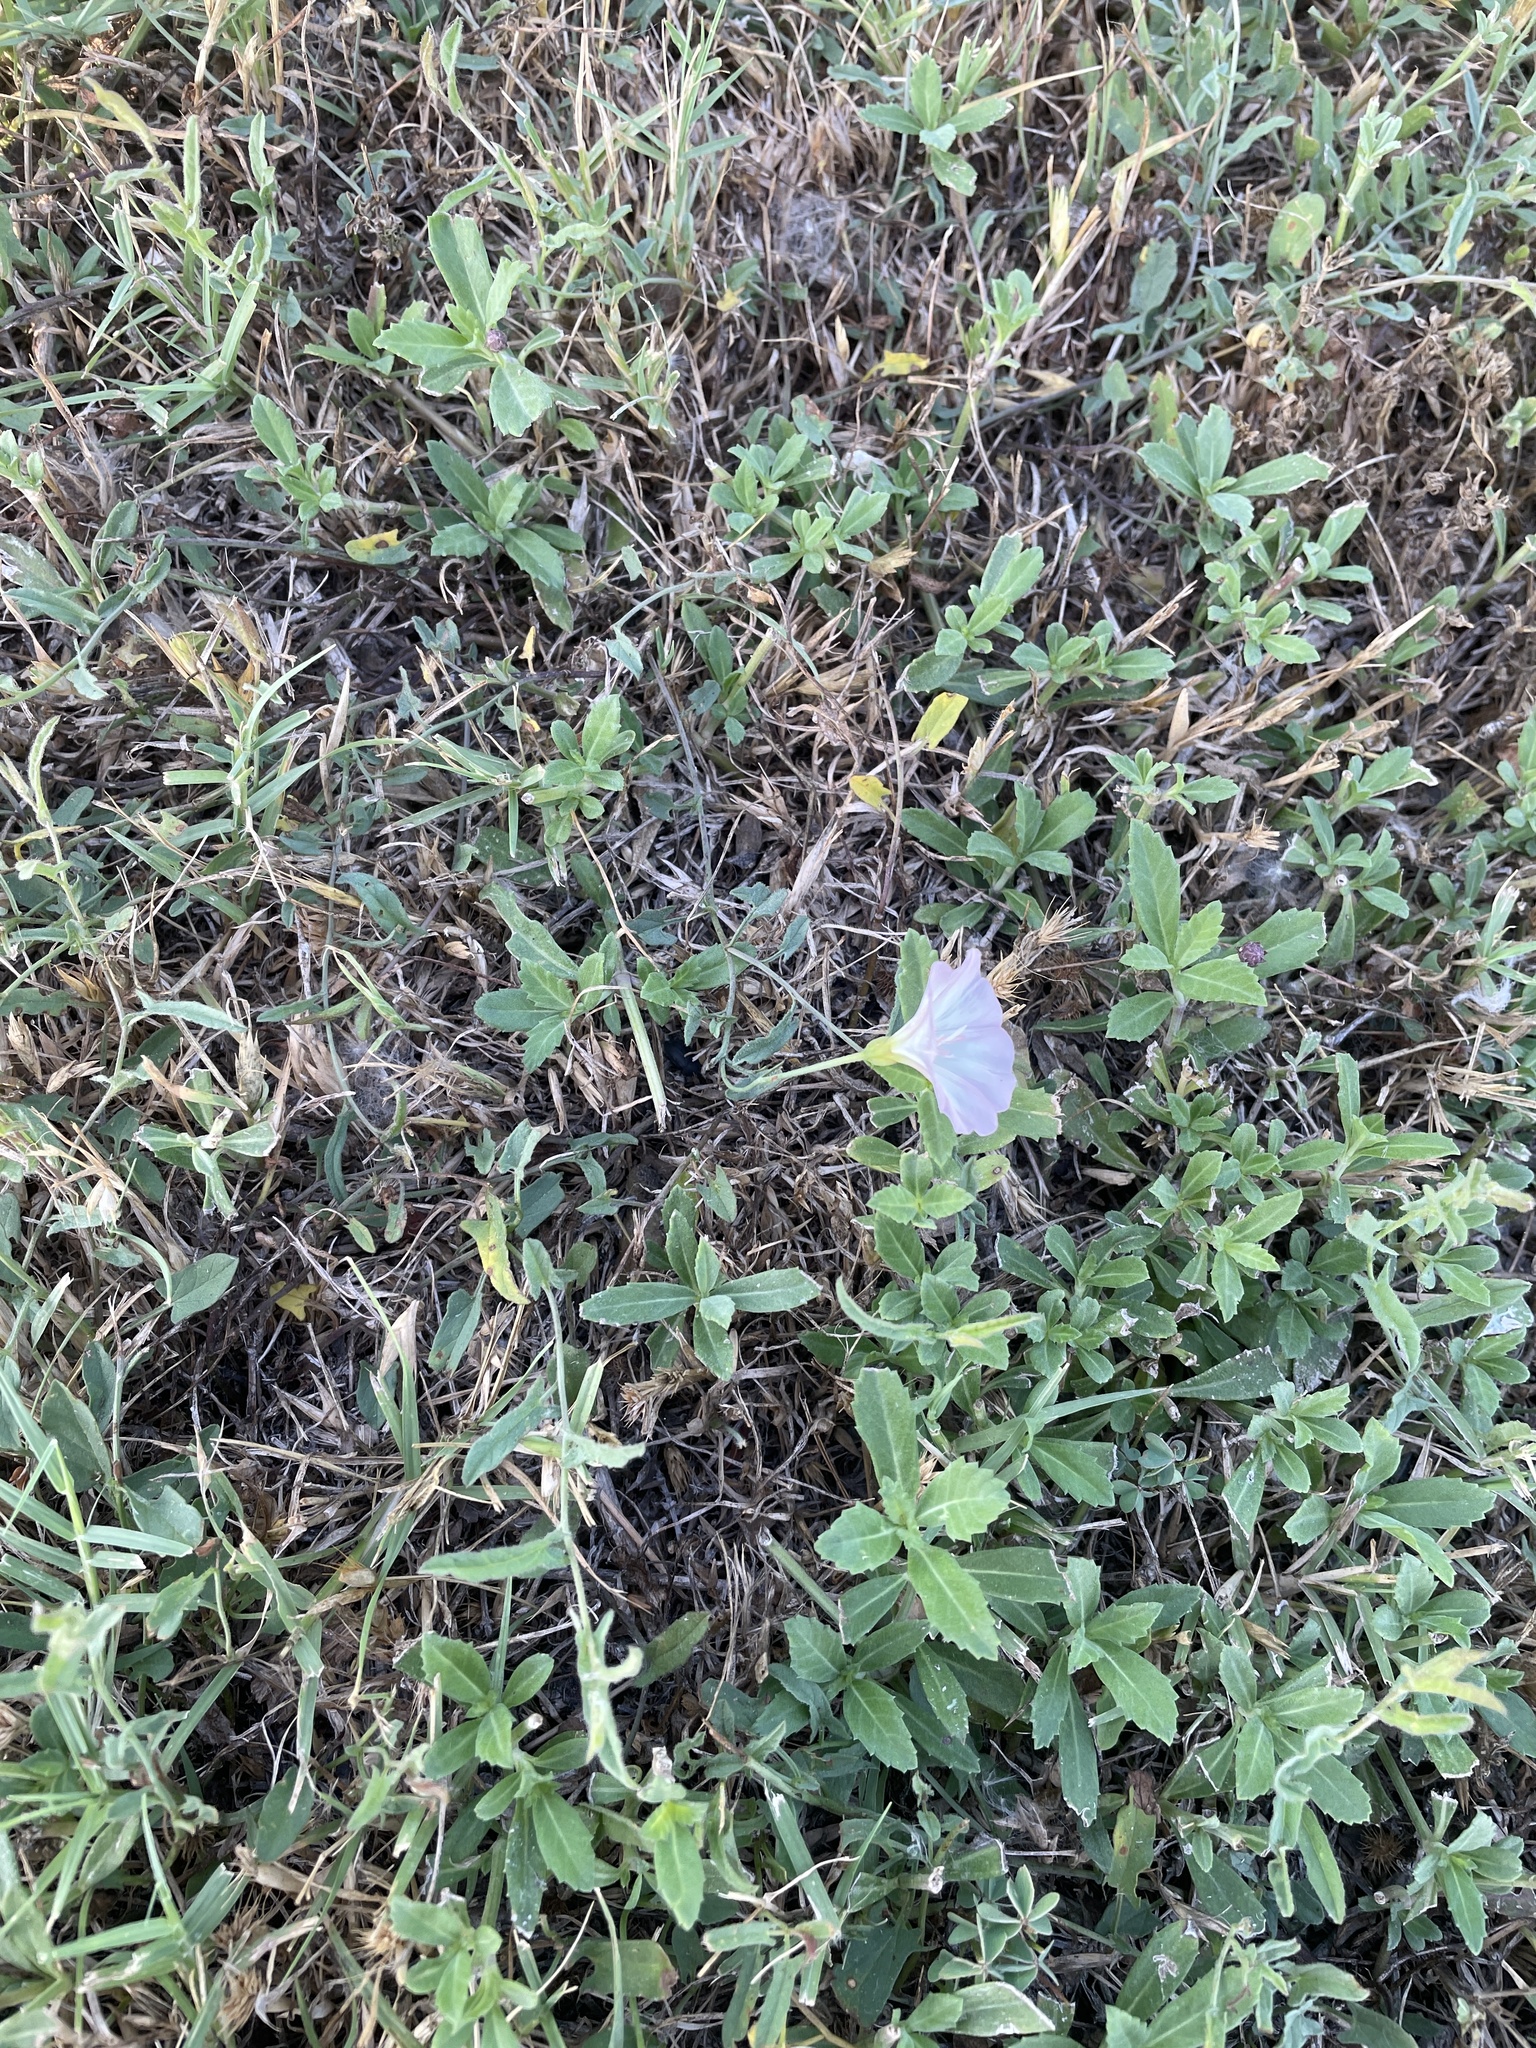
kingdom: Plantae
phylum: Tracheophyta
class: Magnoliopsida
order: Solanales
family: Convolvulaceae
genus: Convolvulus
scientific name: Convolvulus arvensis
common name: Field bindweed
